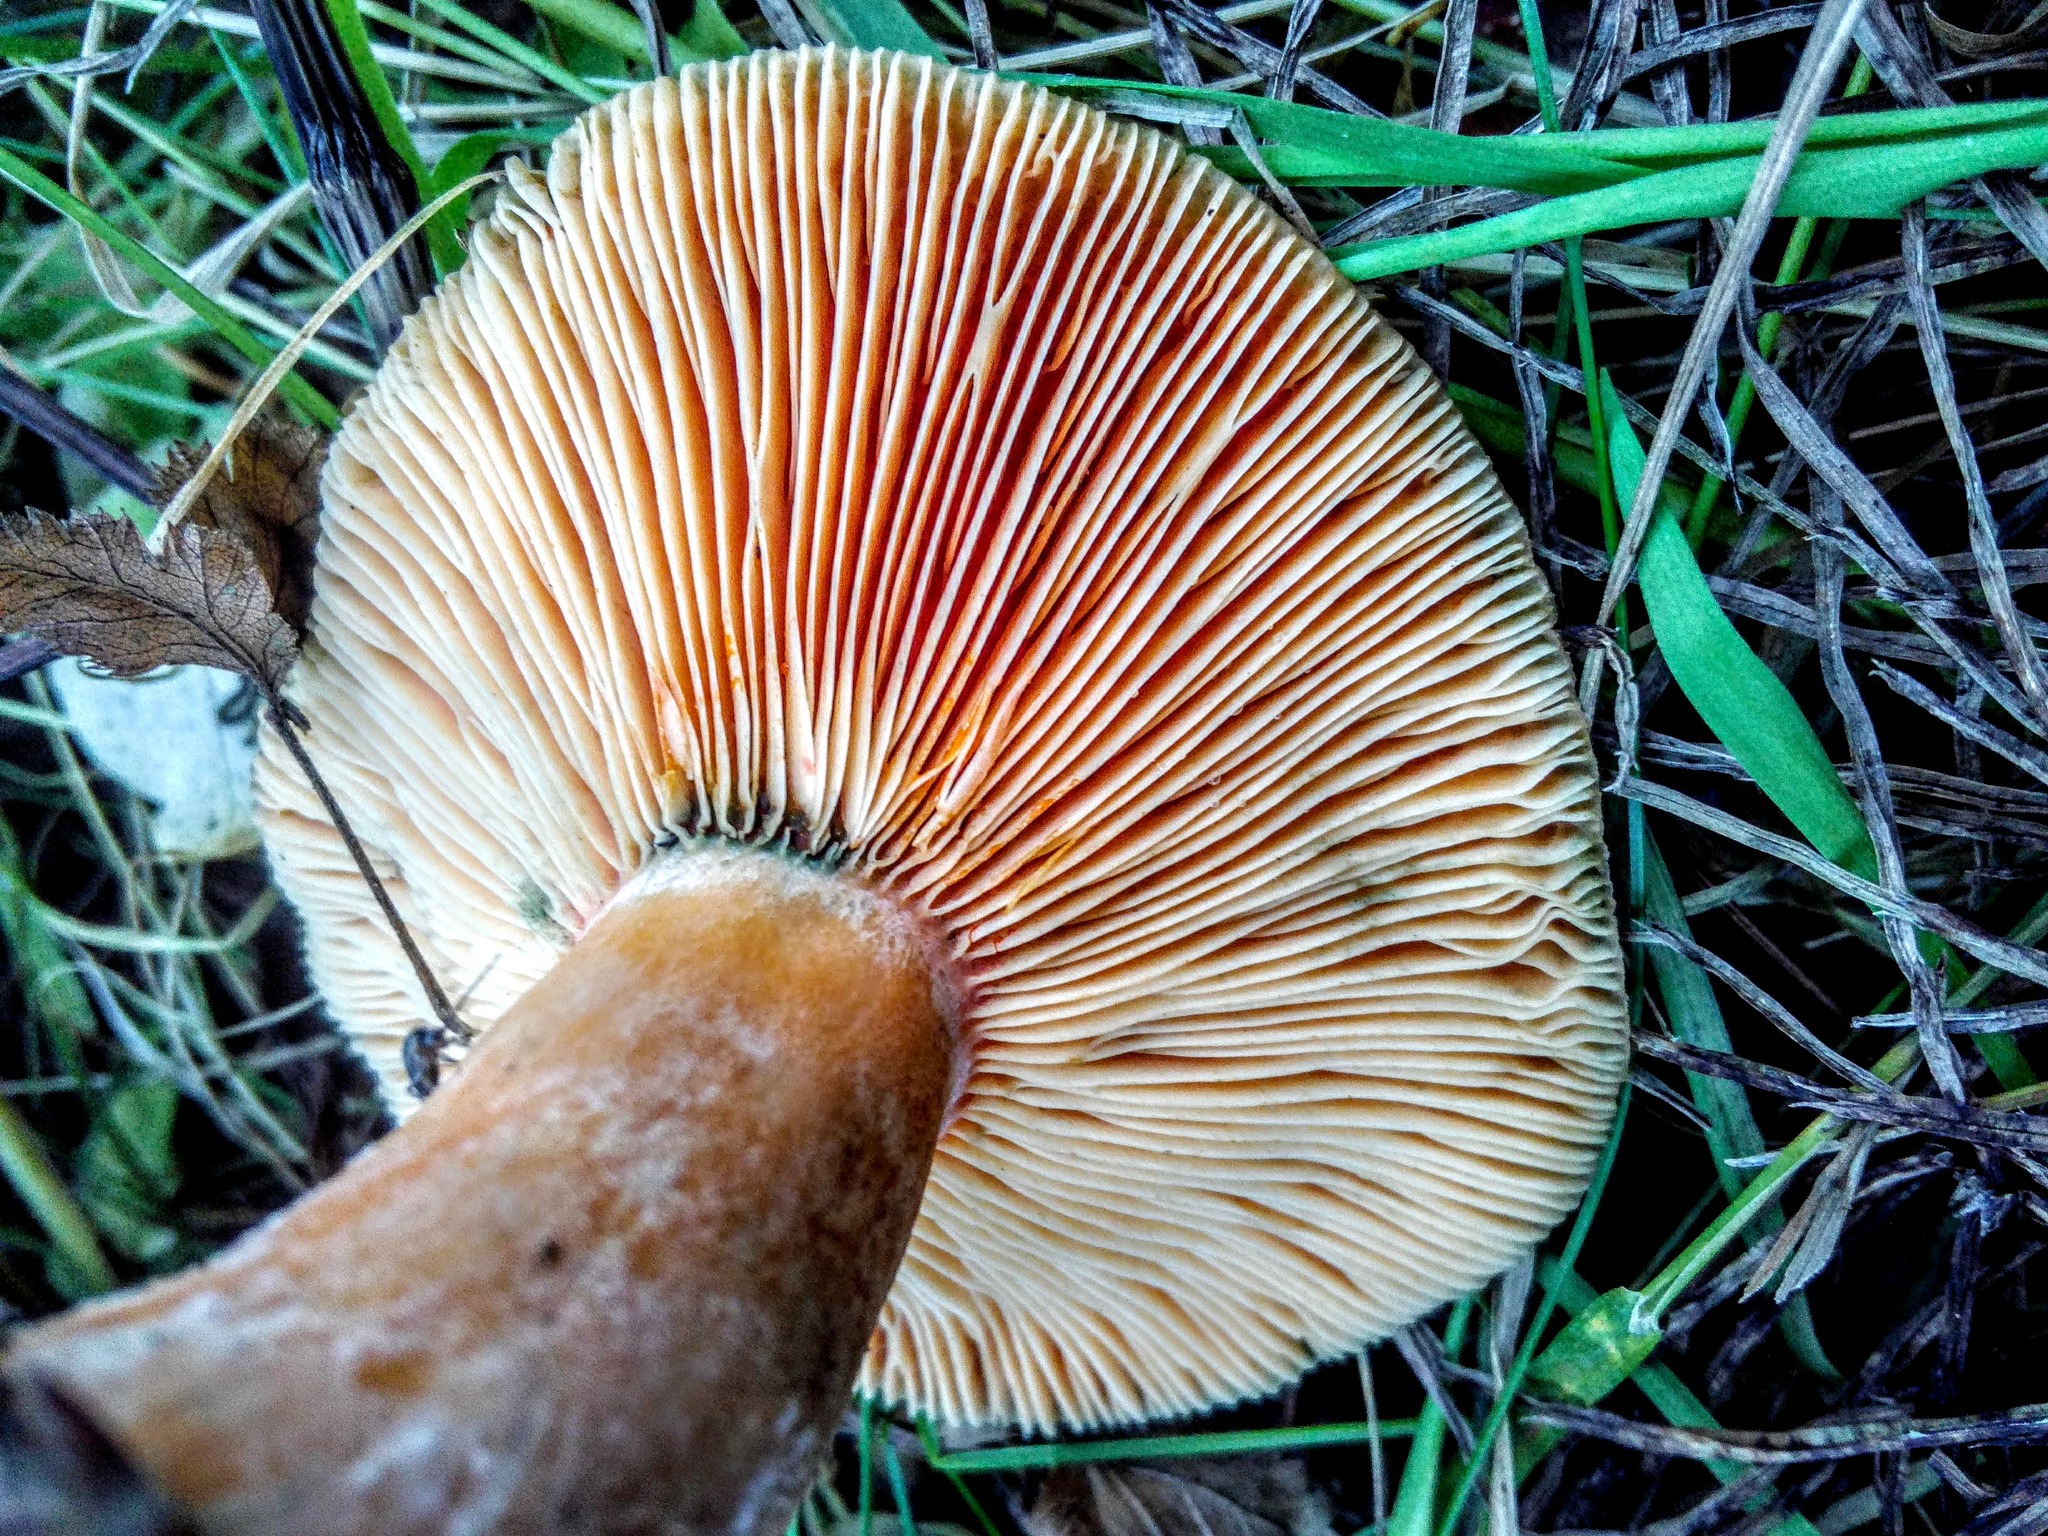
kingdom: Fungi
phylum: Basidiomycota
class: Agaricomycetes
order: Russulales
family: Russulaceae
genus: Lactarius
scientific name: Lactarius deterrimus
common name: False saffron milkcap
